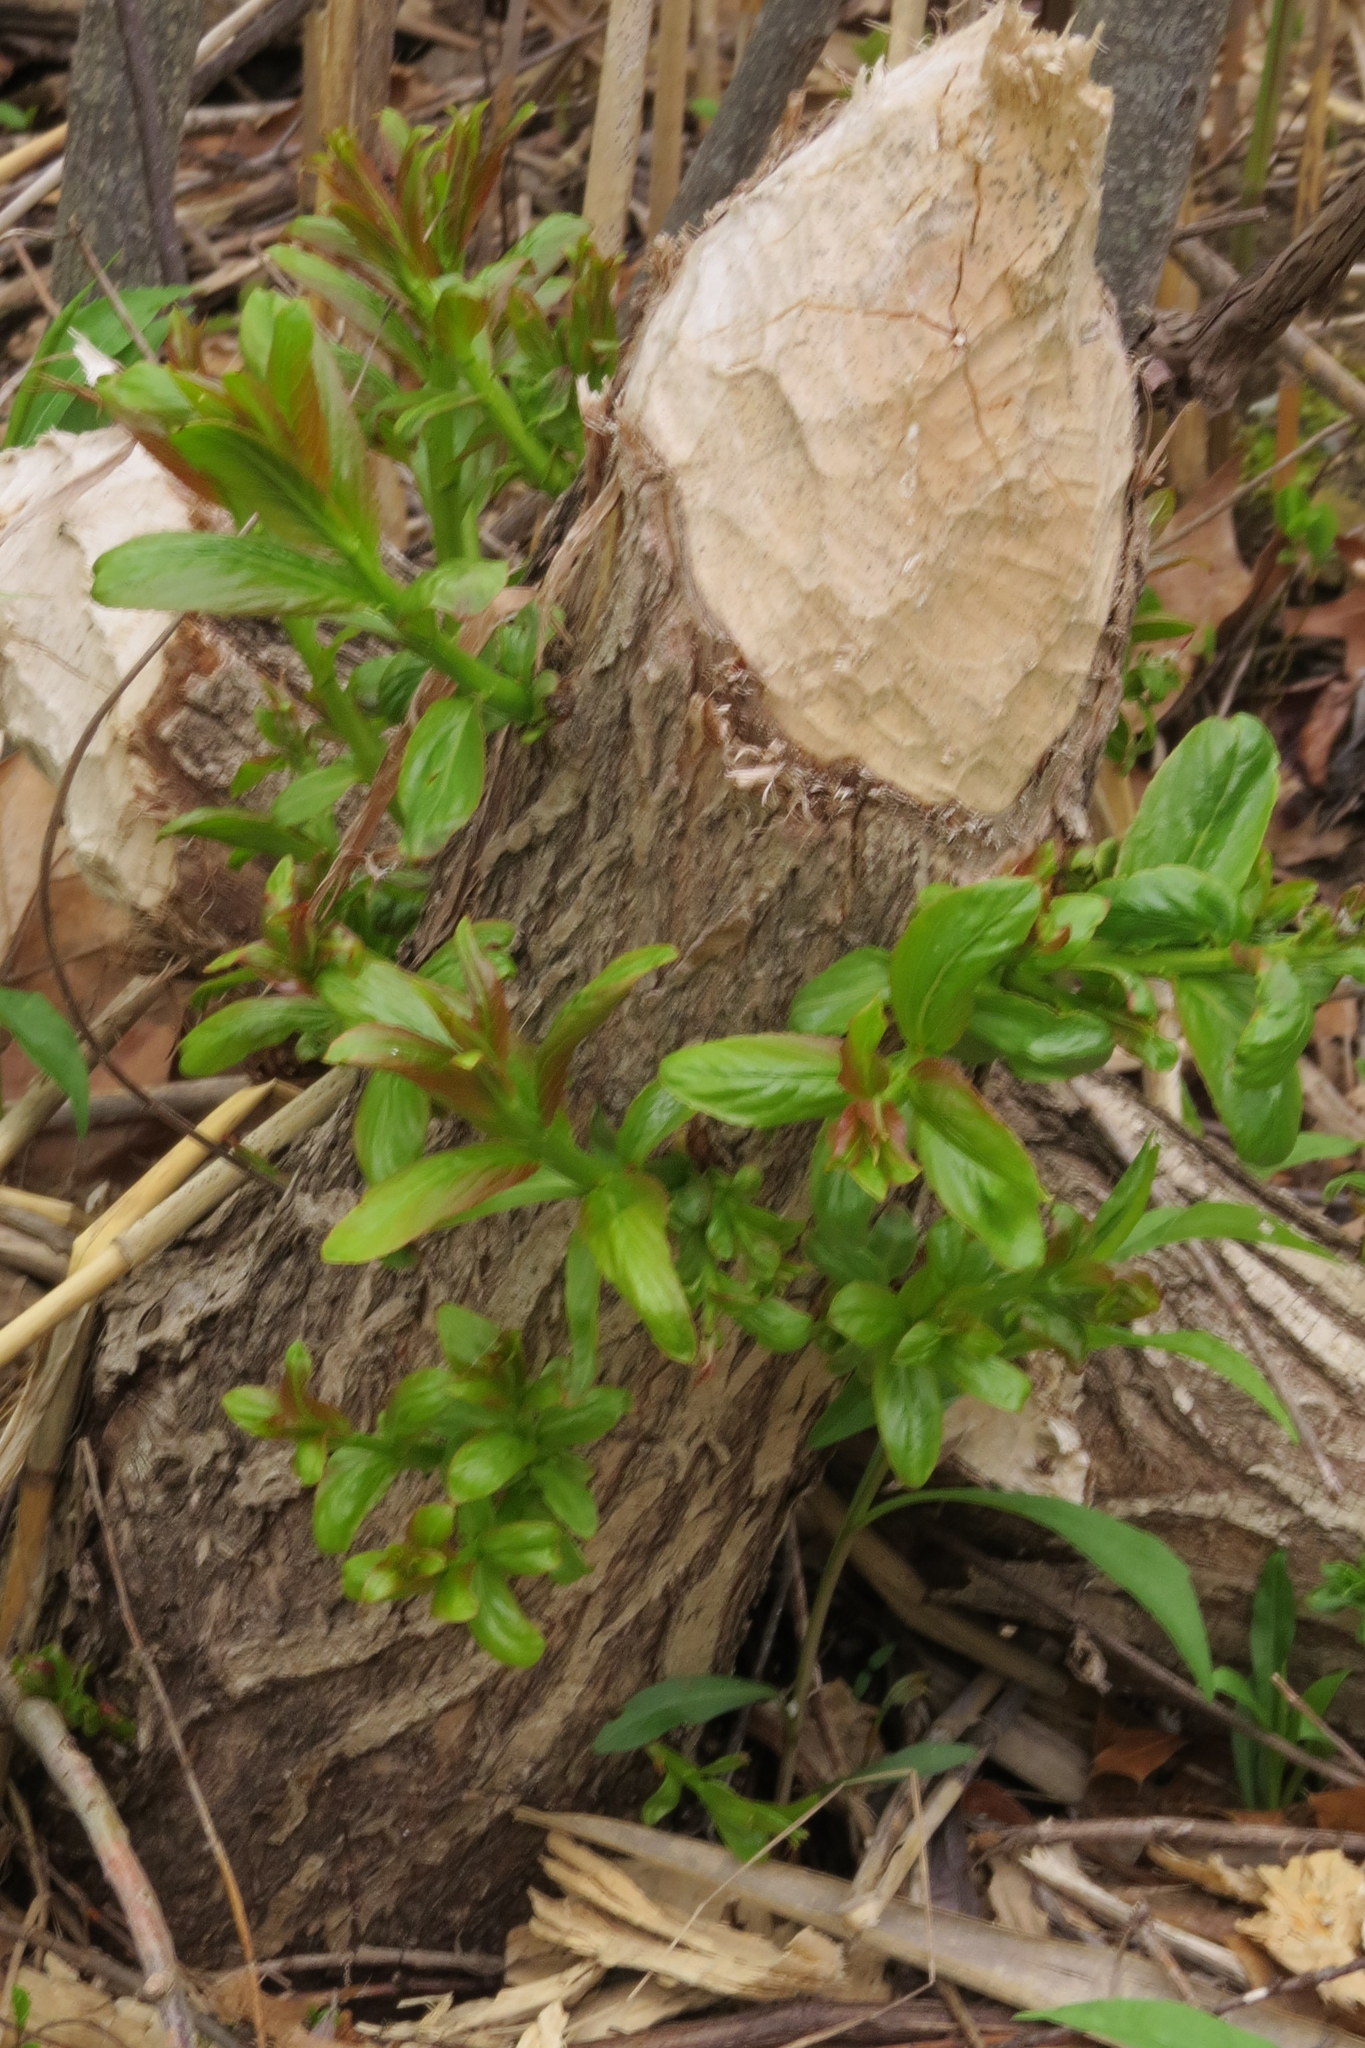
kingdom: Animalia
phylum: Chordata
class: Mammalia
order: Rodentia
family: Castoridae
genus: Castor
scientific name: Castor canadensis
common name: American beaver
